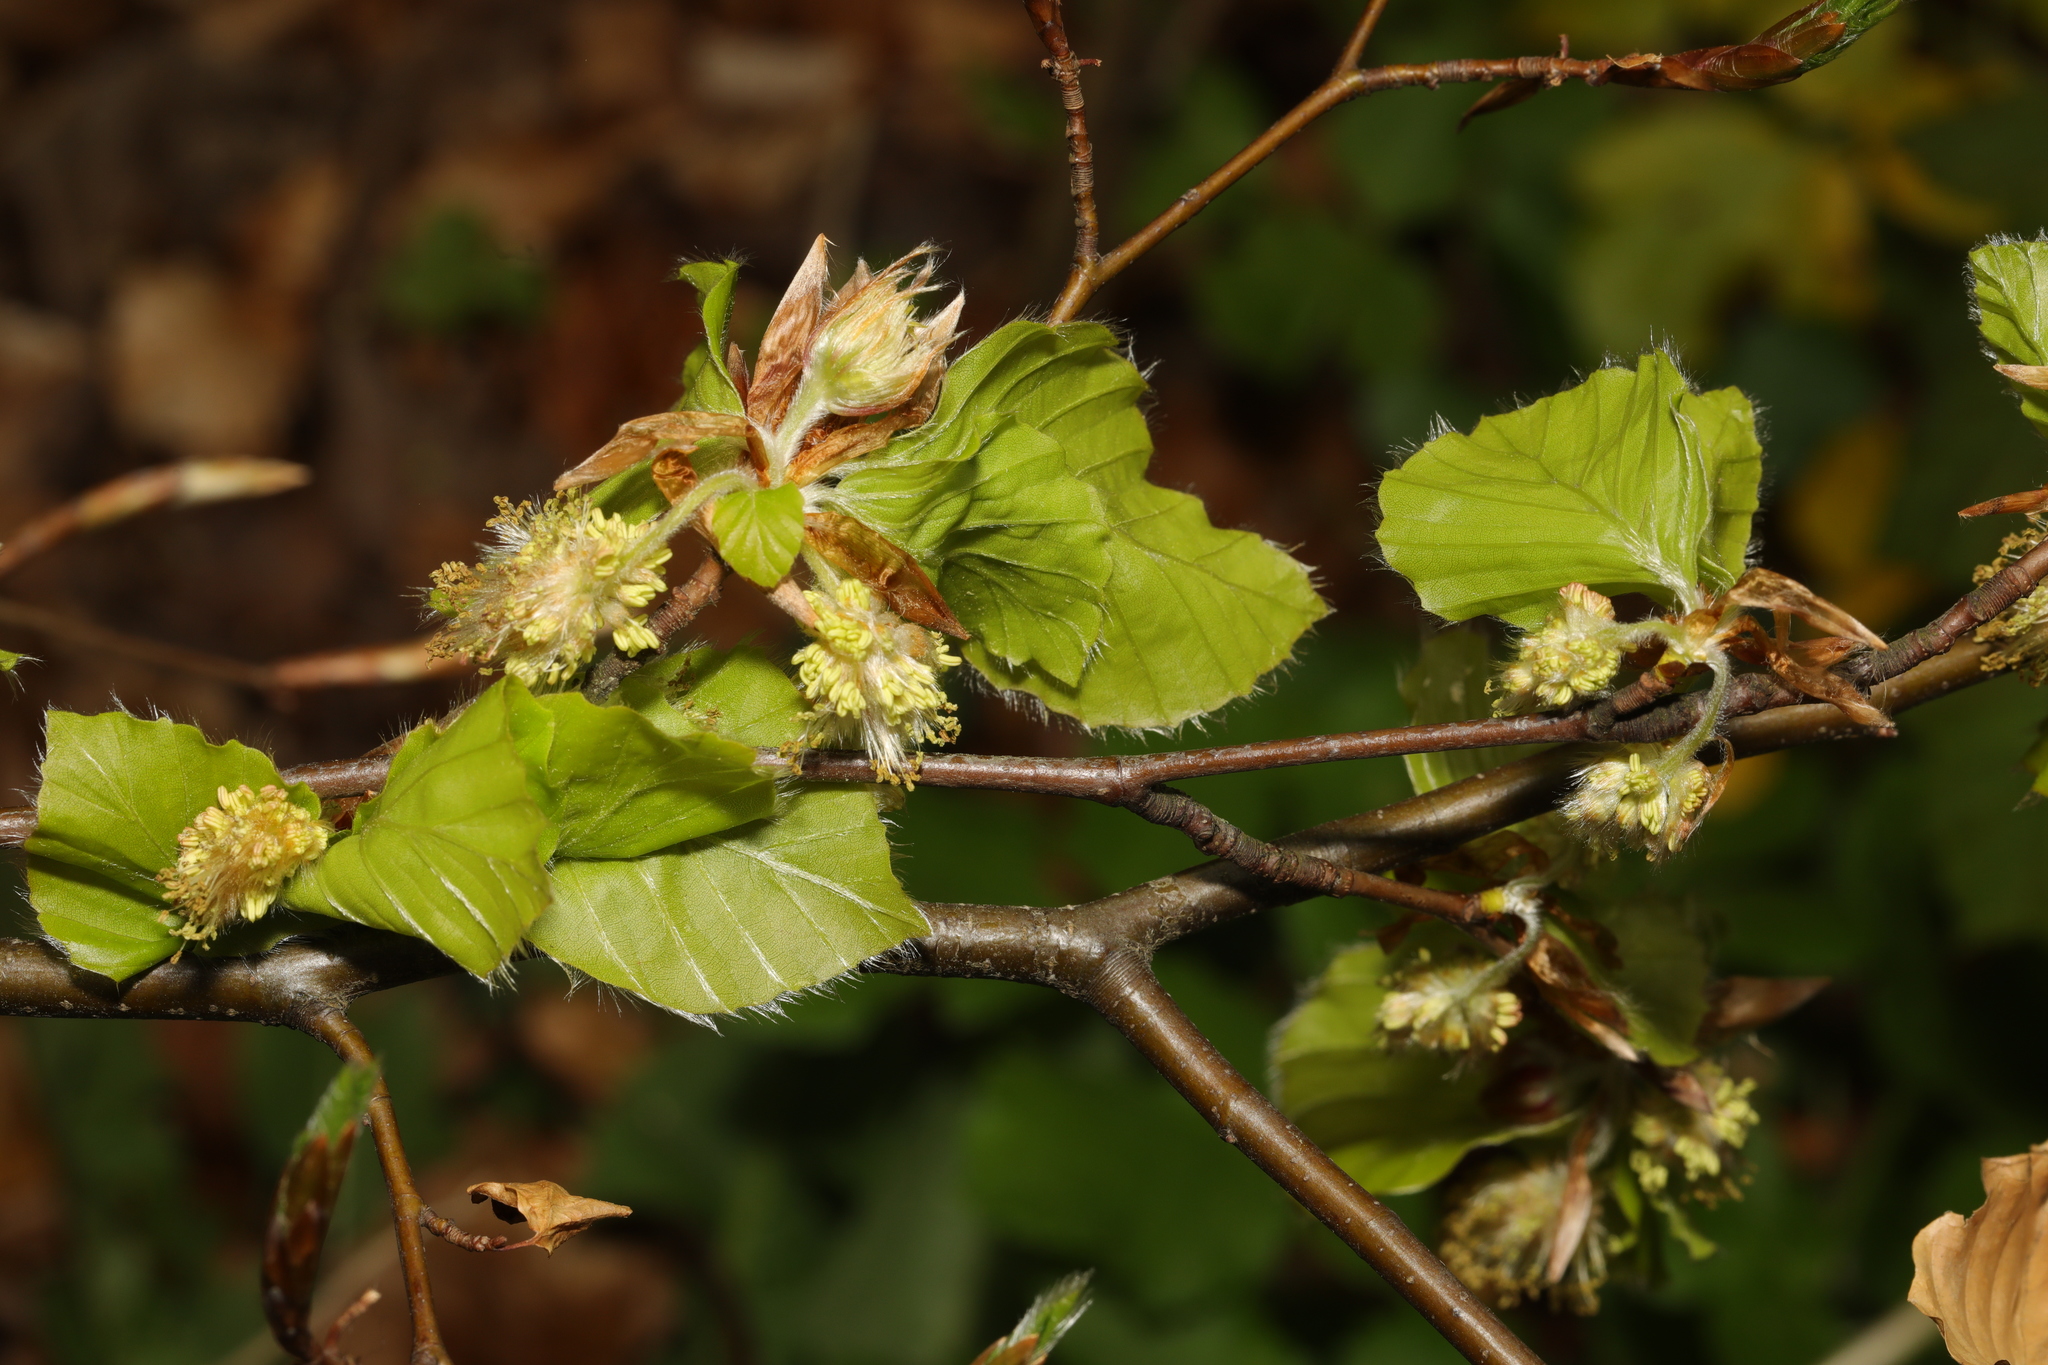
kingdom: Plantae
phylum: Tracheophyta
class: Magnoliopsida
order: Fagales
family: Fagaceae
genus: Fagus
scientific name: Fagus sylvatica
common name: Beech
